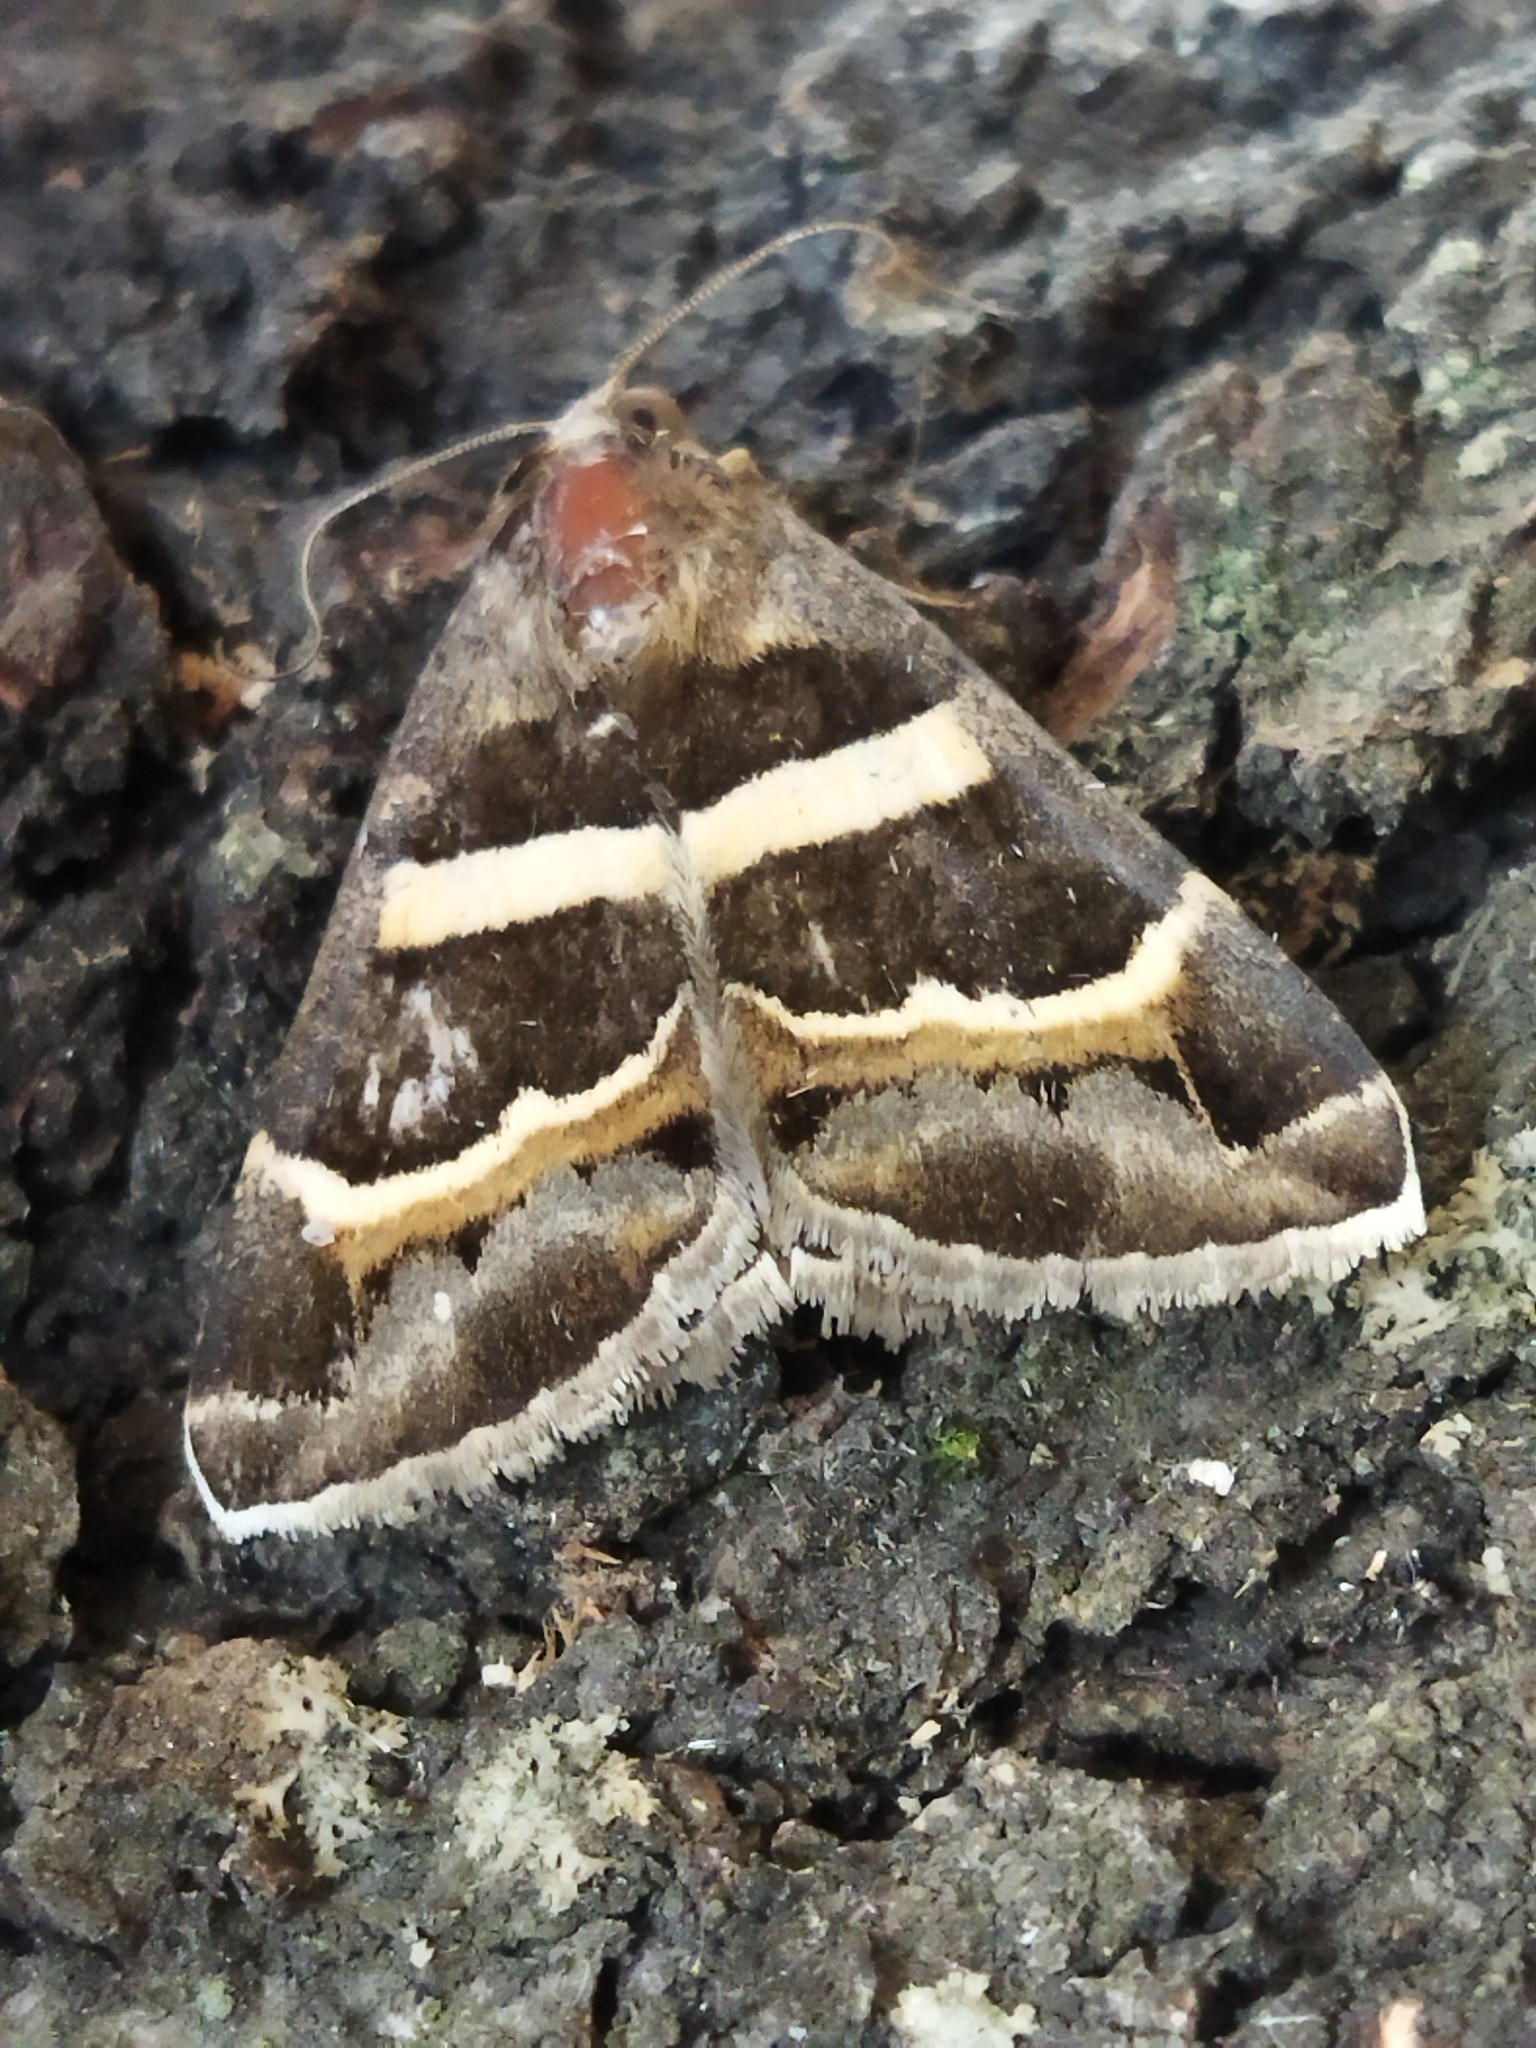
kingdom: Animalia
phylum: Arthropoda
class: Insecta
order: Lepidoptera
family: Erebidae
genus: Grammodes
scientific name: Grammodes stolida
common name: Geometrician
